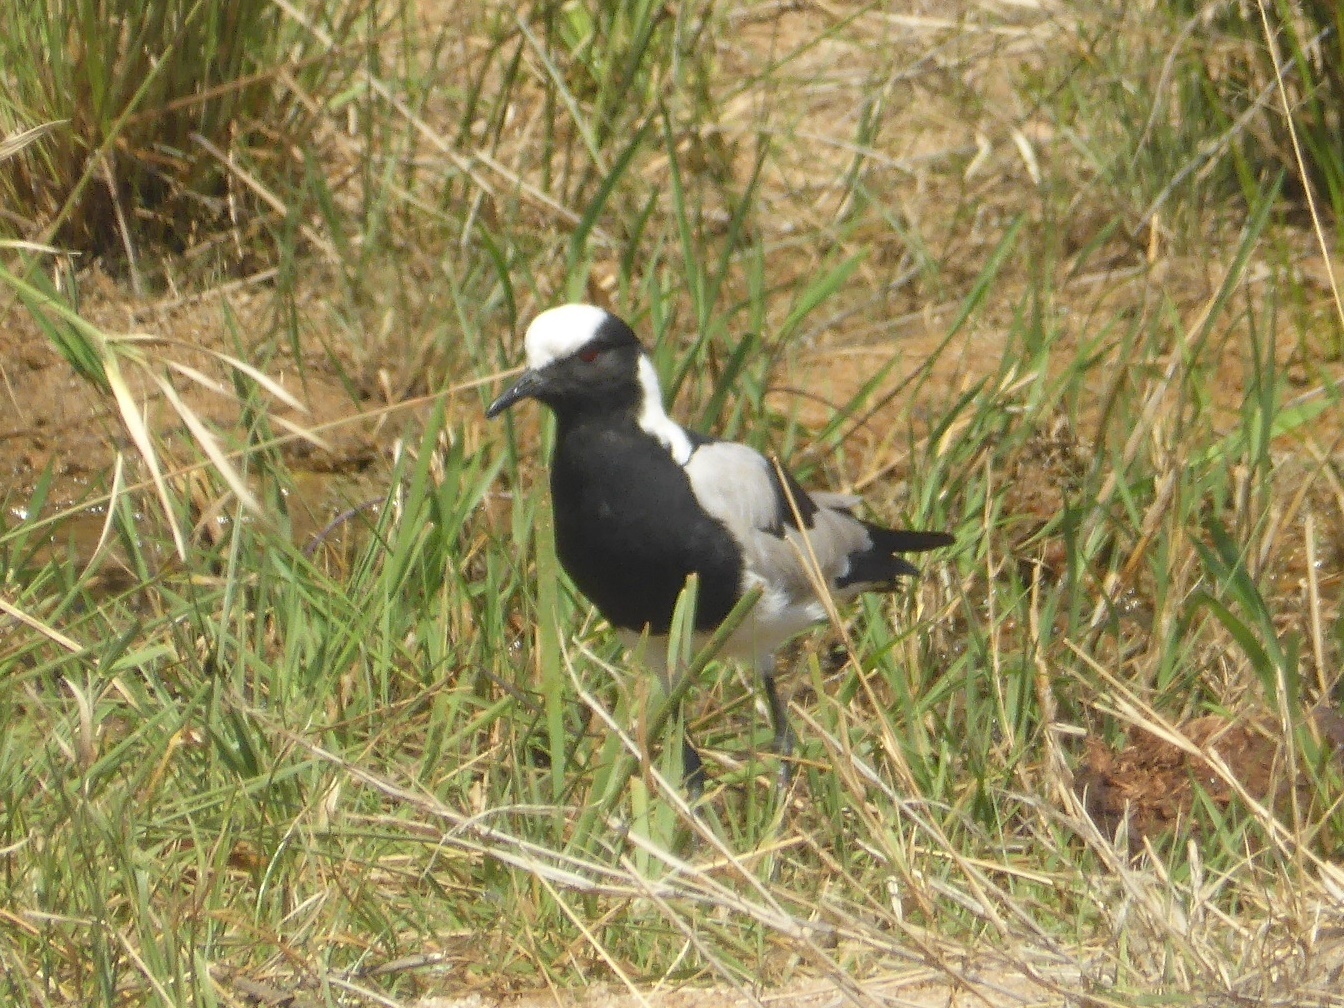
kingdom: Animalia
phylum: Chordata
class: Aves
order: Charadriiformes
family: Charadriidae
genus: Vanellus
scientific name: Vanellus armatus
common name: Blacksmith lapwing
